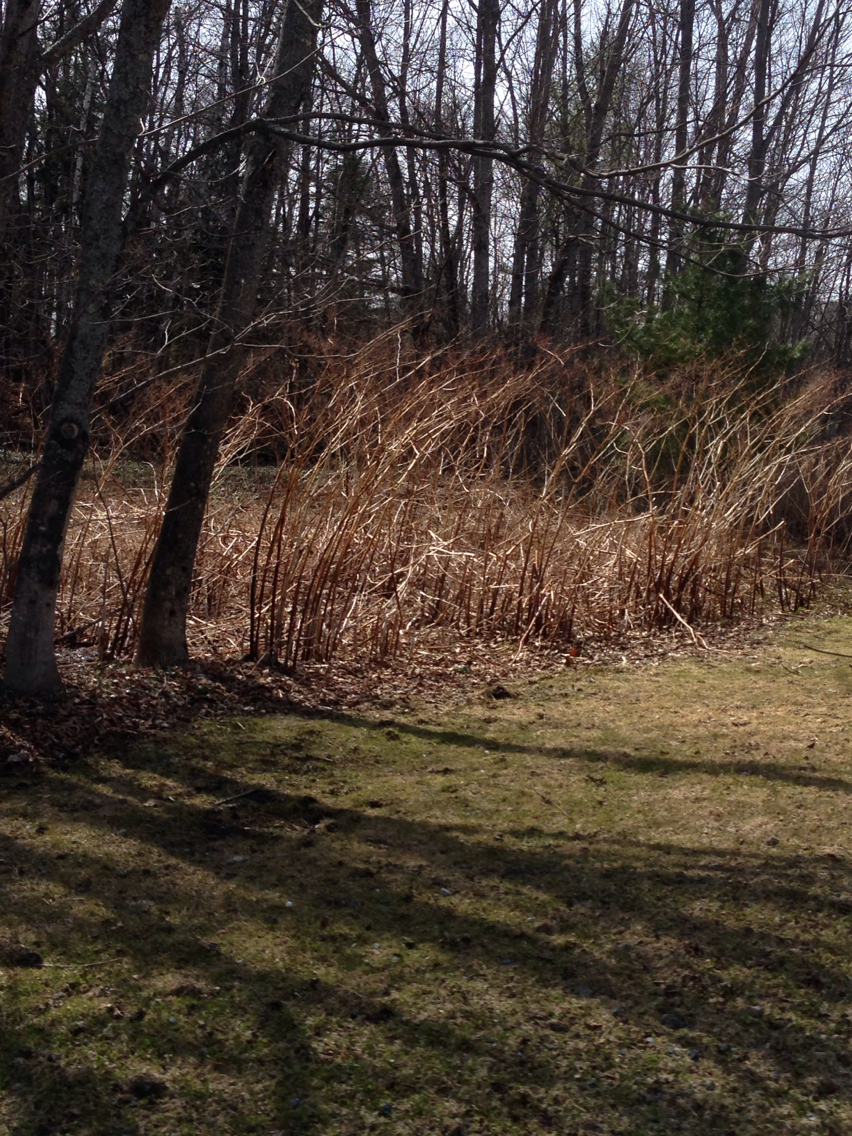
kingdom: Plantae
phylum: Tracheophyta
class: Magnoliopsida
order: Caryophyllales
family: Polygonaceae
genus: Reynoutria
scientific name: Reynoutria japonica
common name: Japanese knotweed
